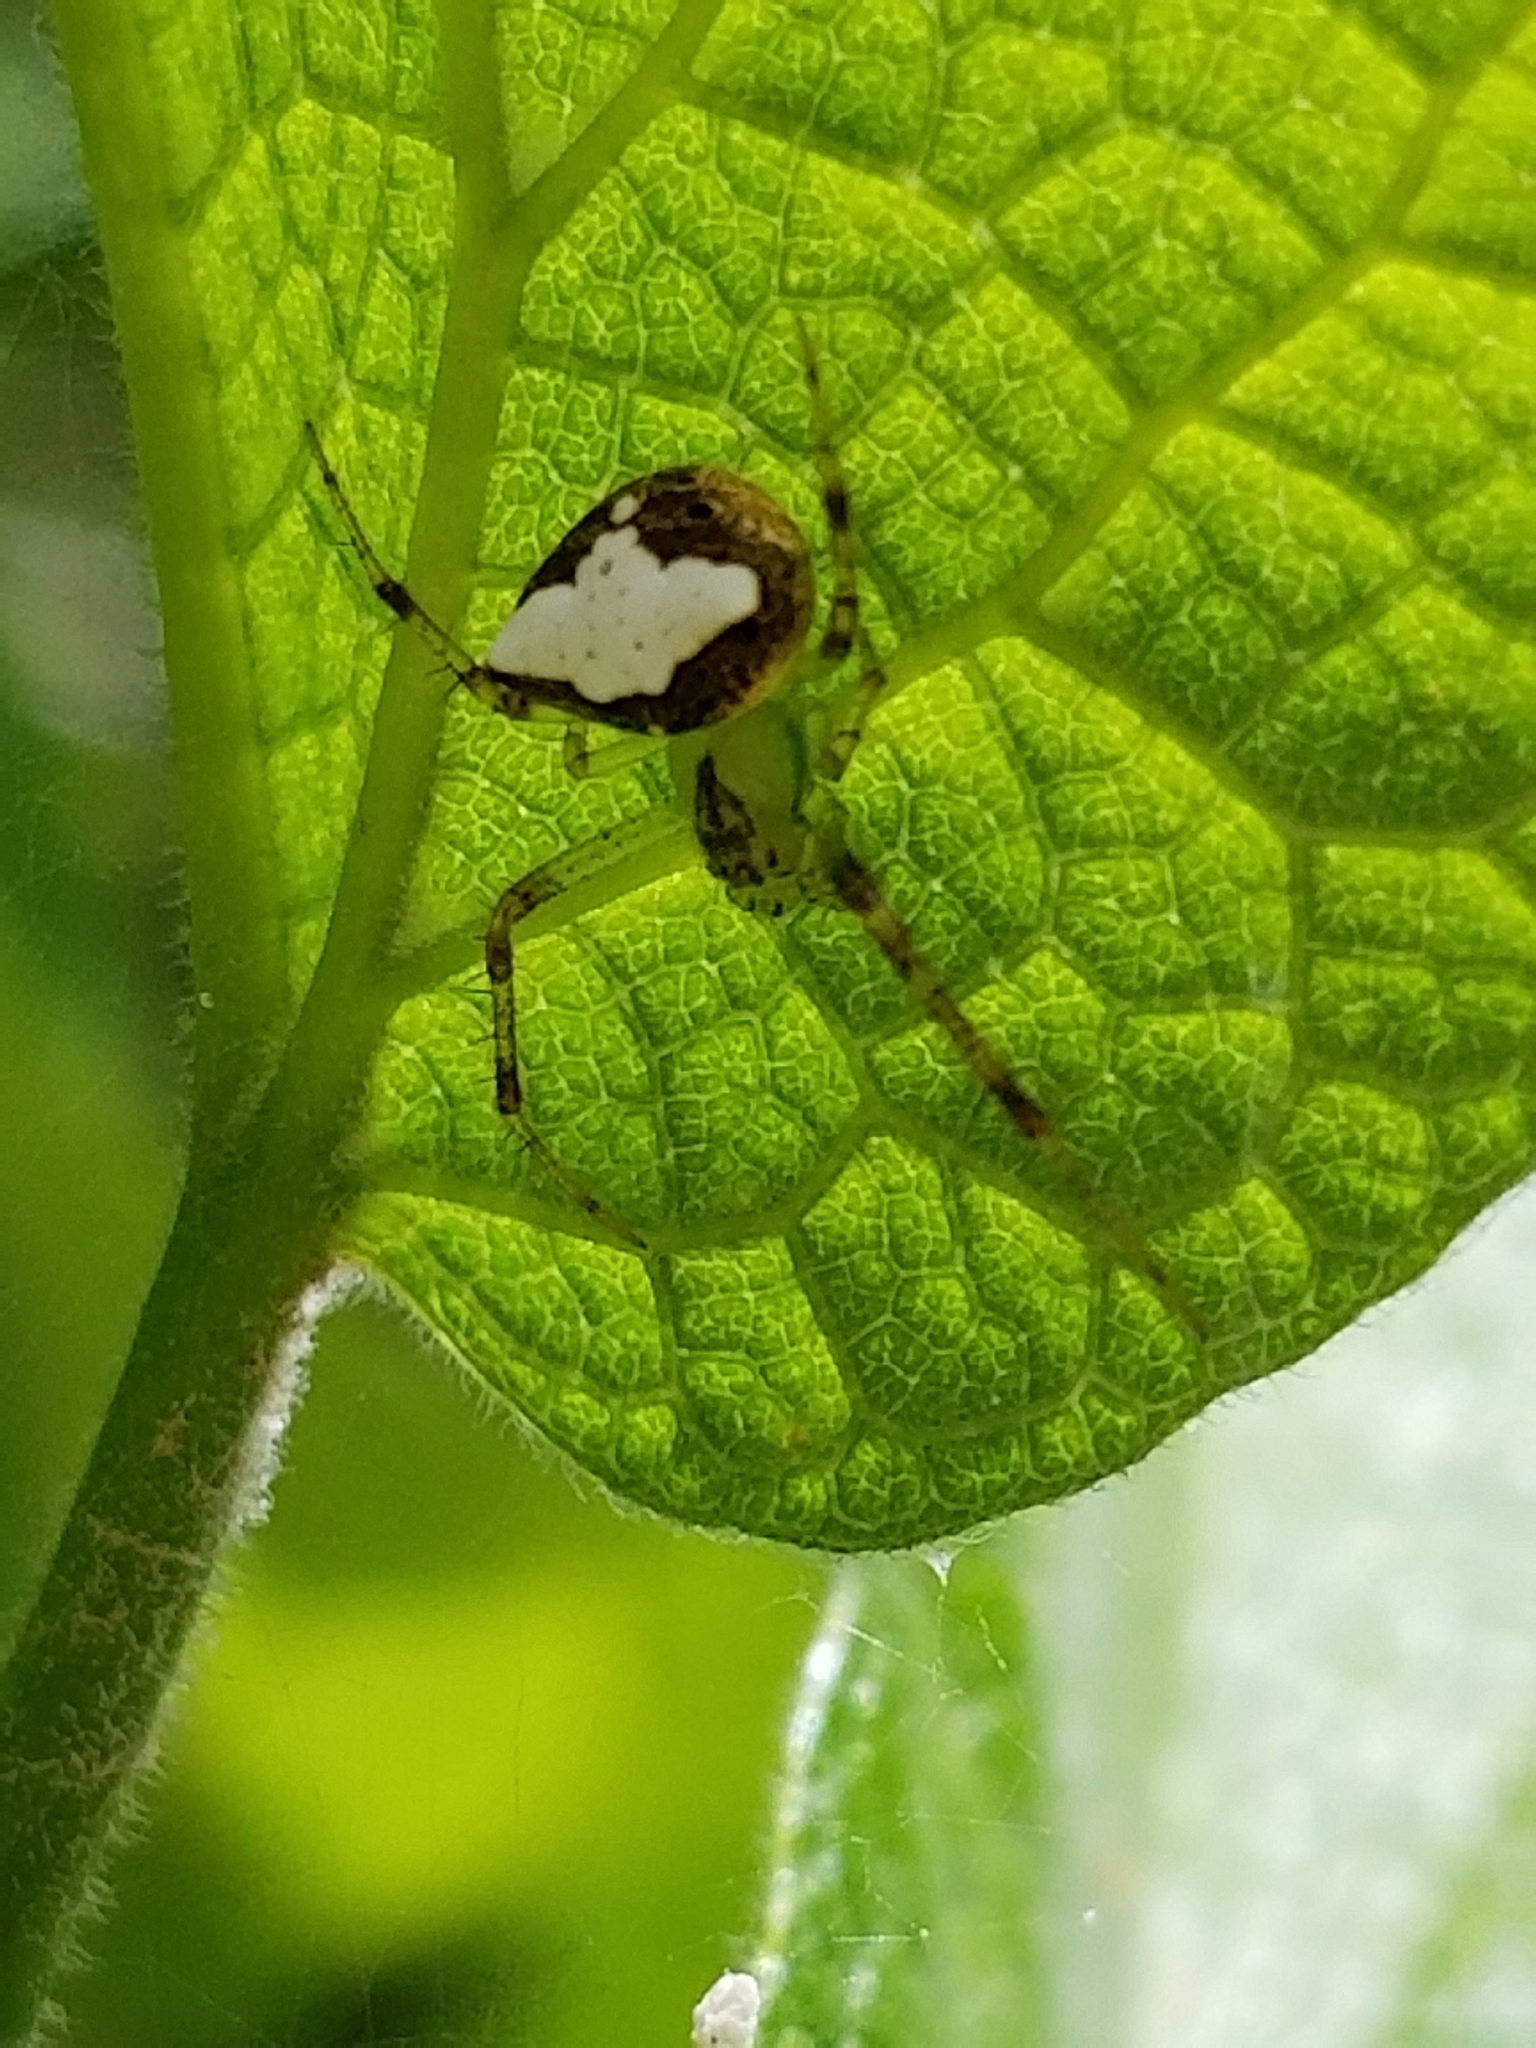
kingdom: Animalia
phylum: Arthropoda
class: Arachnida
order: Araneae
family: Araneidae
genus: Araneus
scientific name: Araneus miniatus
